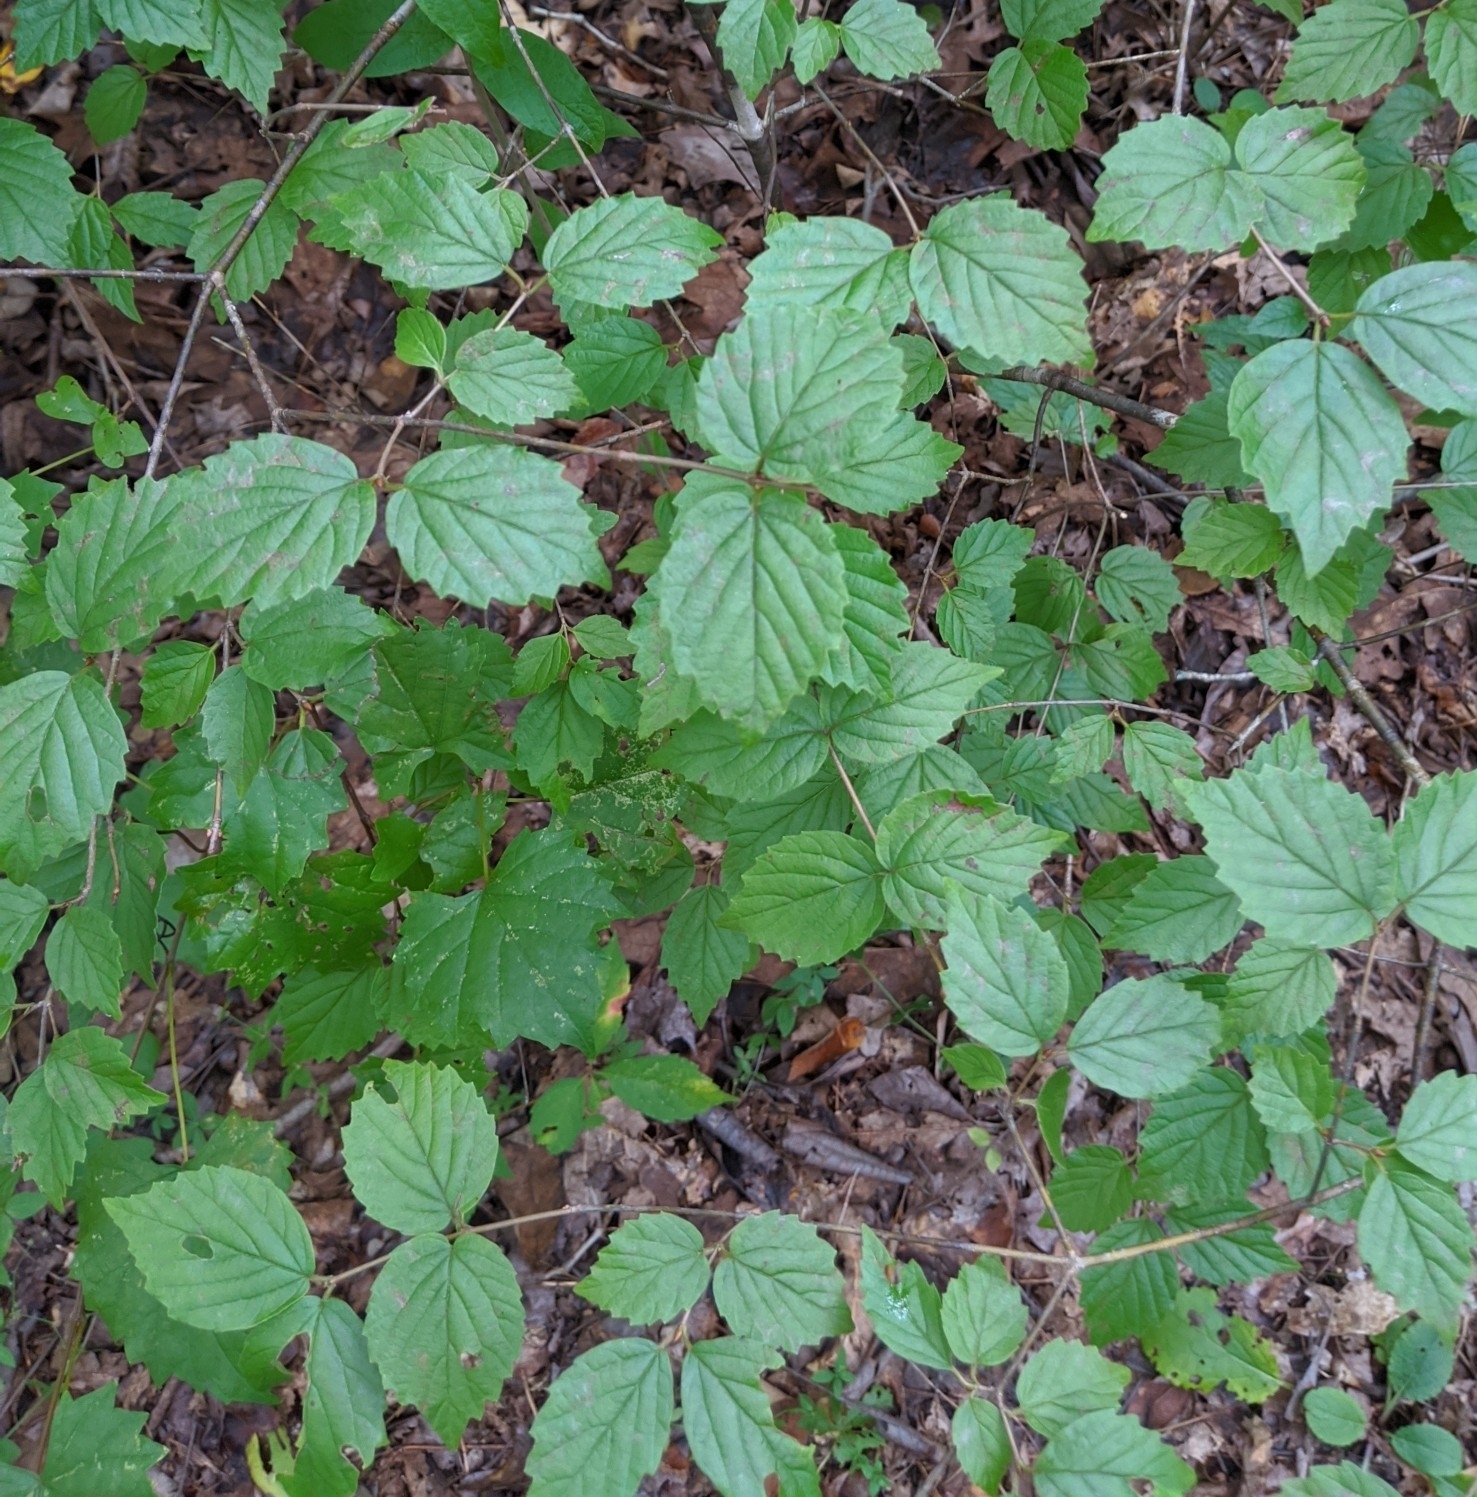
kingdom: Plantae
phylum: Tracheophyta
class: Magnoliopsida
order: Dipsacales
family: Viburnaceae
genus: Viburnum
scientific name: Viburnum rafinesqueanum
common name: Downy arrow-wood
